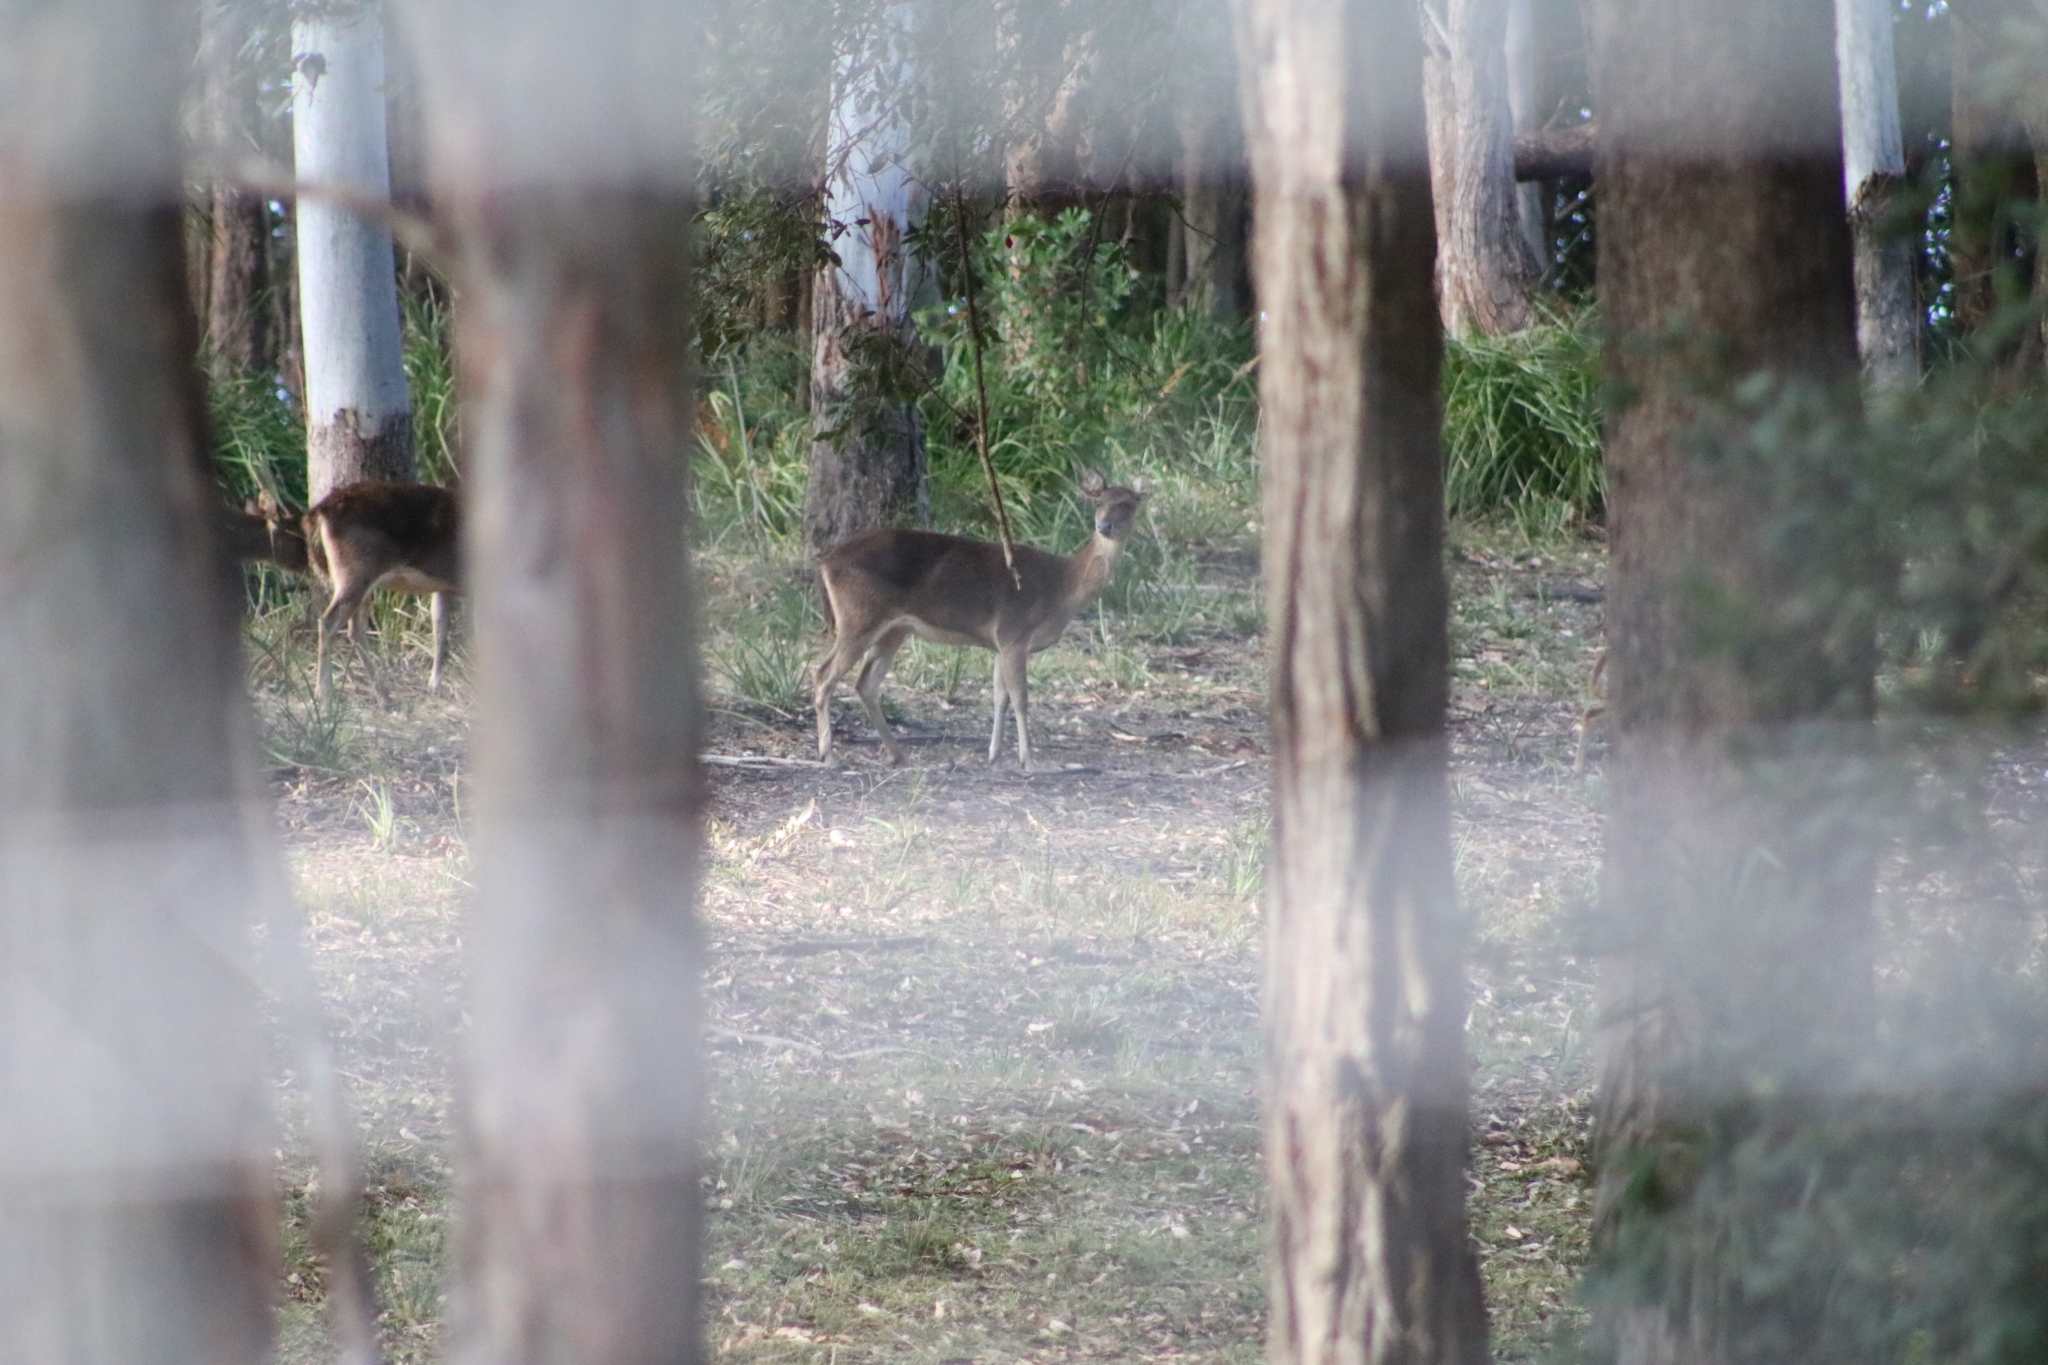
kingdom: Animalia
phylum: Chordata
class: Mammalia
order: Artiodactyla
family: Cervidae
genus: Rusa
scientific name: Rusa timorensis
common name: Javan rusa
